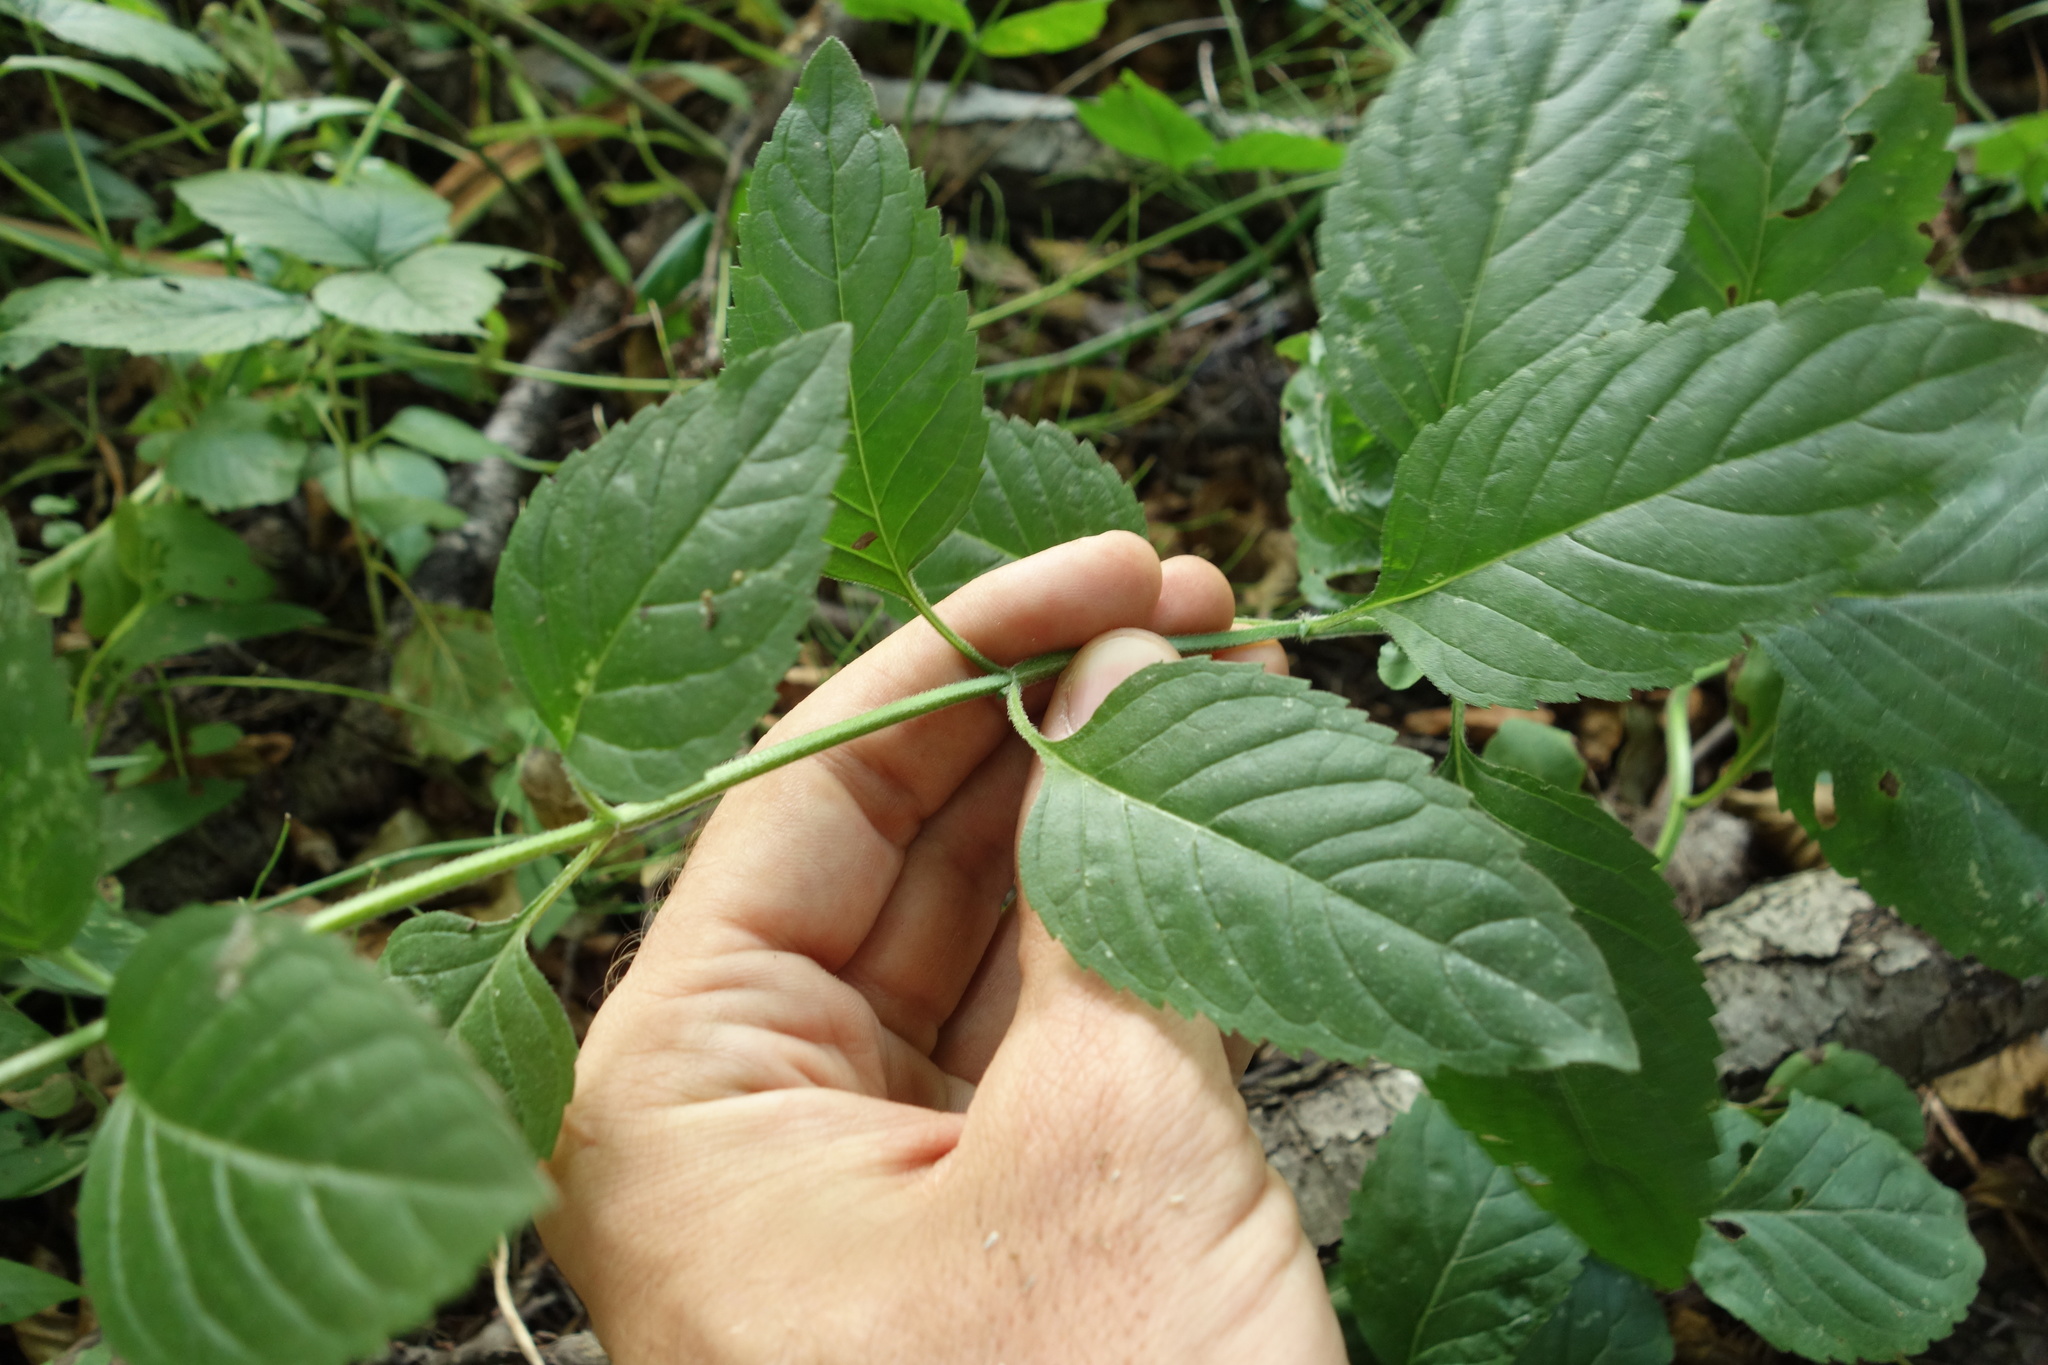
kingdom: Plantae
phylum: Tracheophyta
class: Magnoliopsida
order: Lamiales
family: Lamiaceae
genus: Mentha
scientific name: Mentha arvensis
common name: Corn mint
